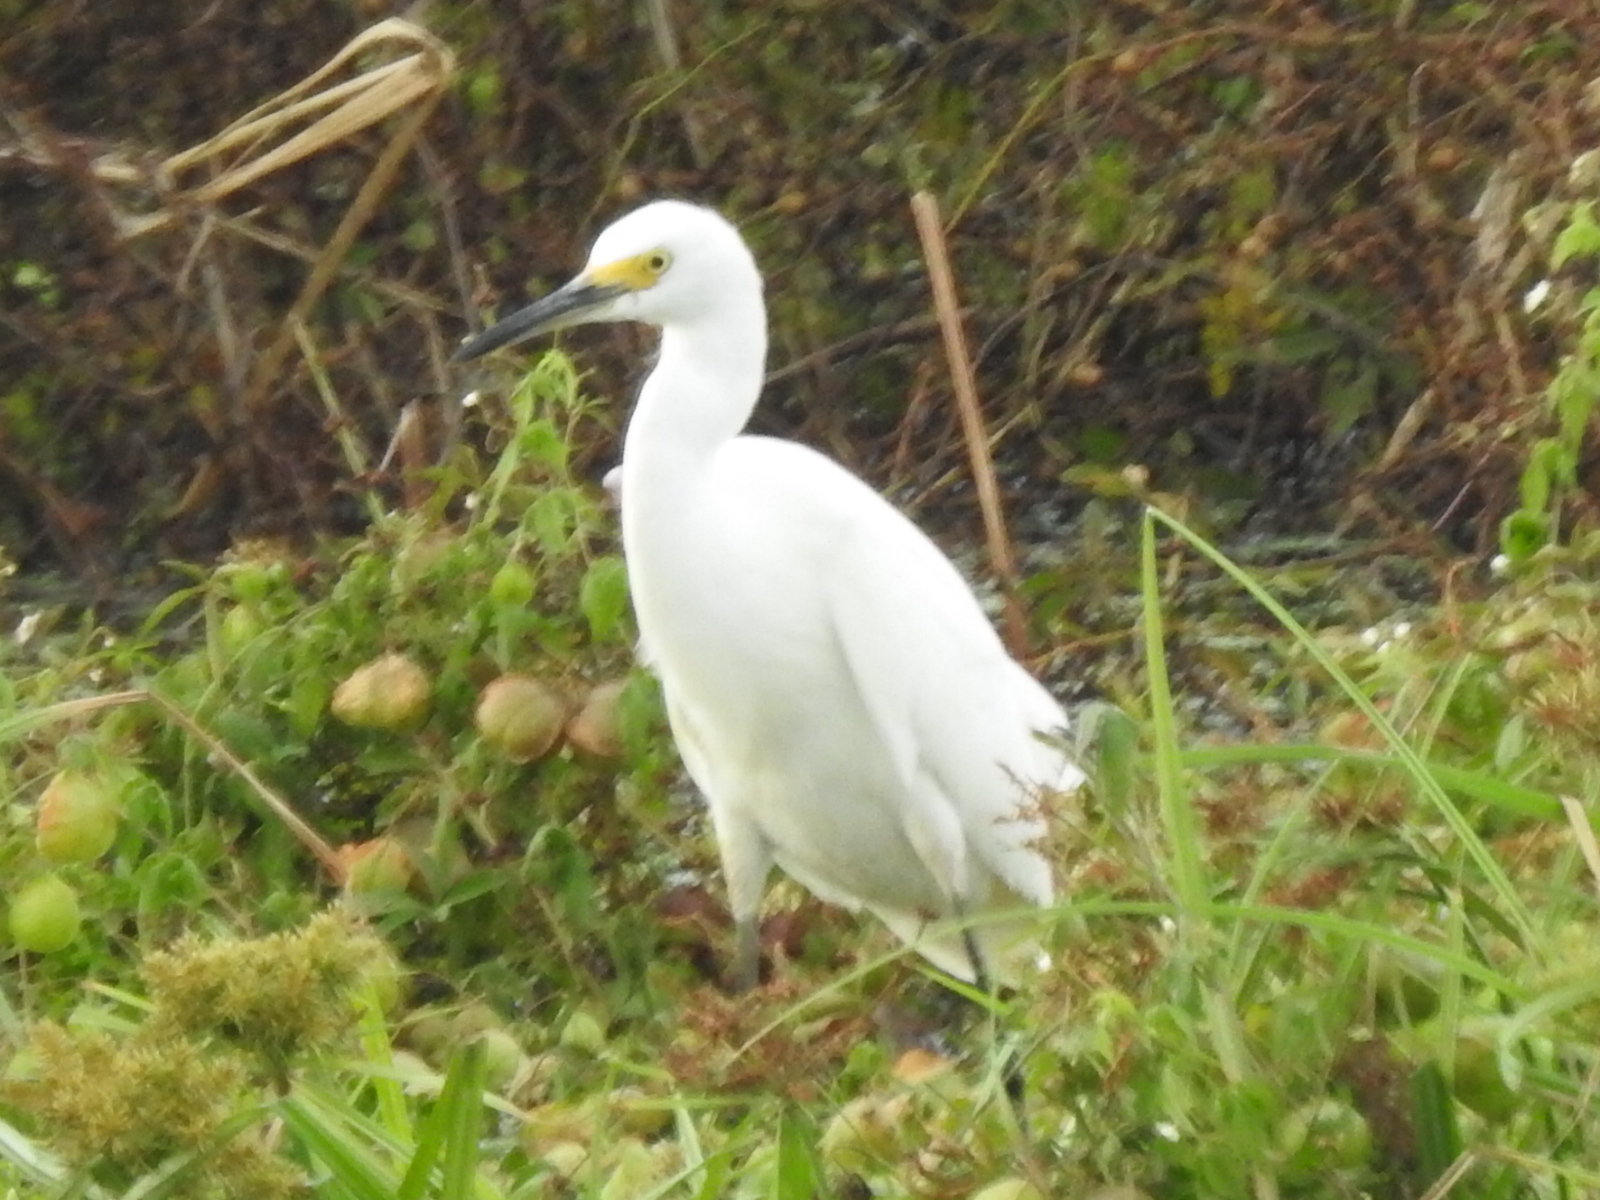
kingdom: Animalia
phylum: Chordata
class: Aves
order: Pelecaniformes
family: Ardeidae
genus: Egretta
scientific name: Egretta thula
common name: Snowy egret
